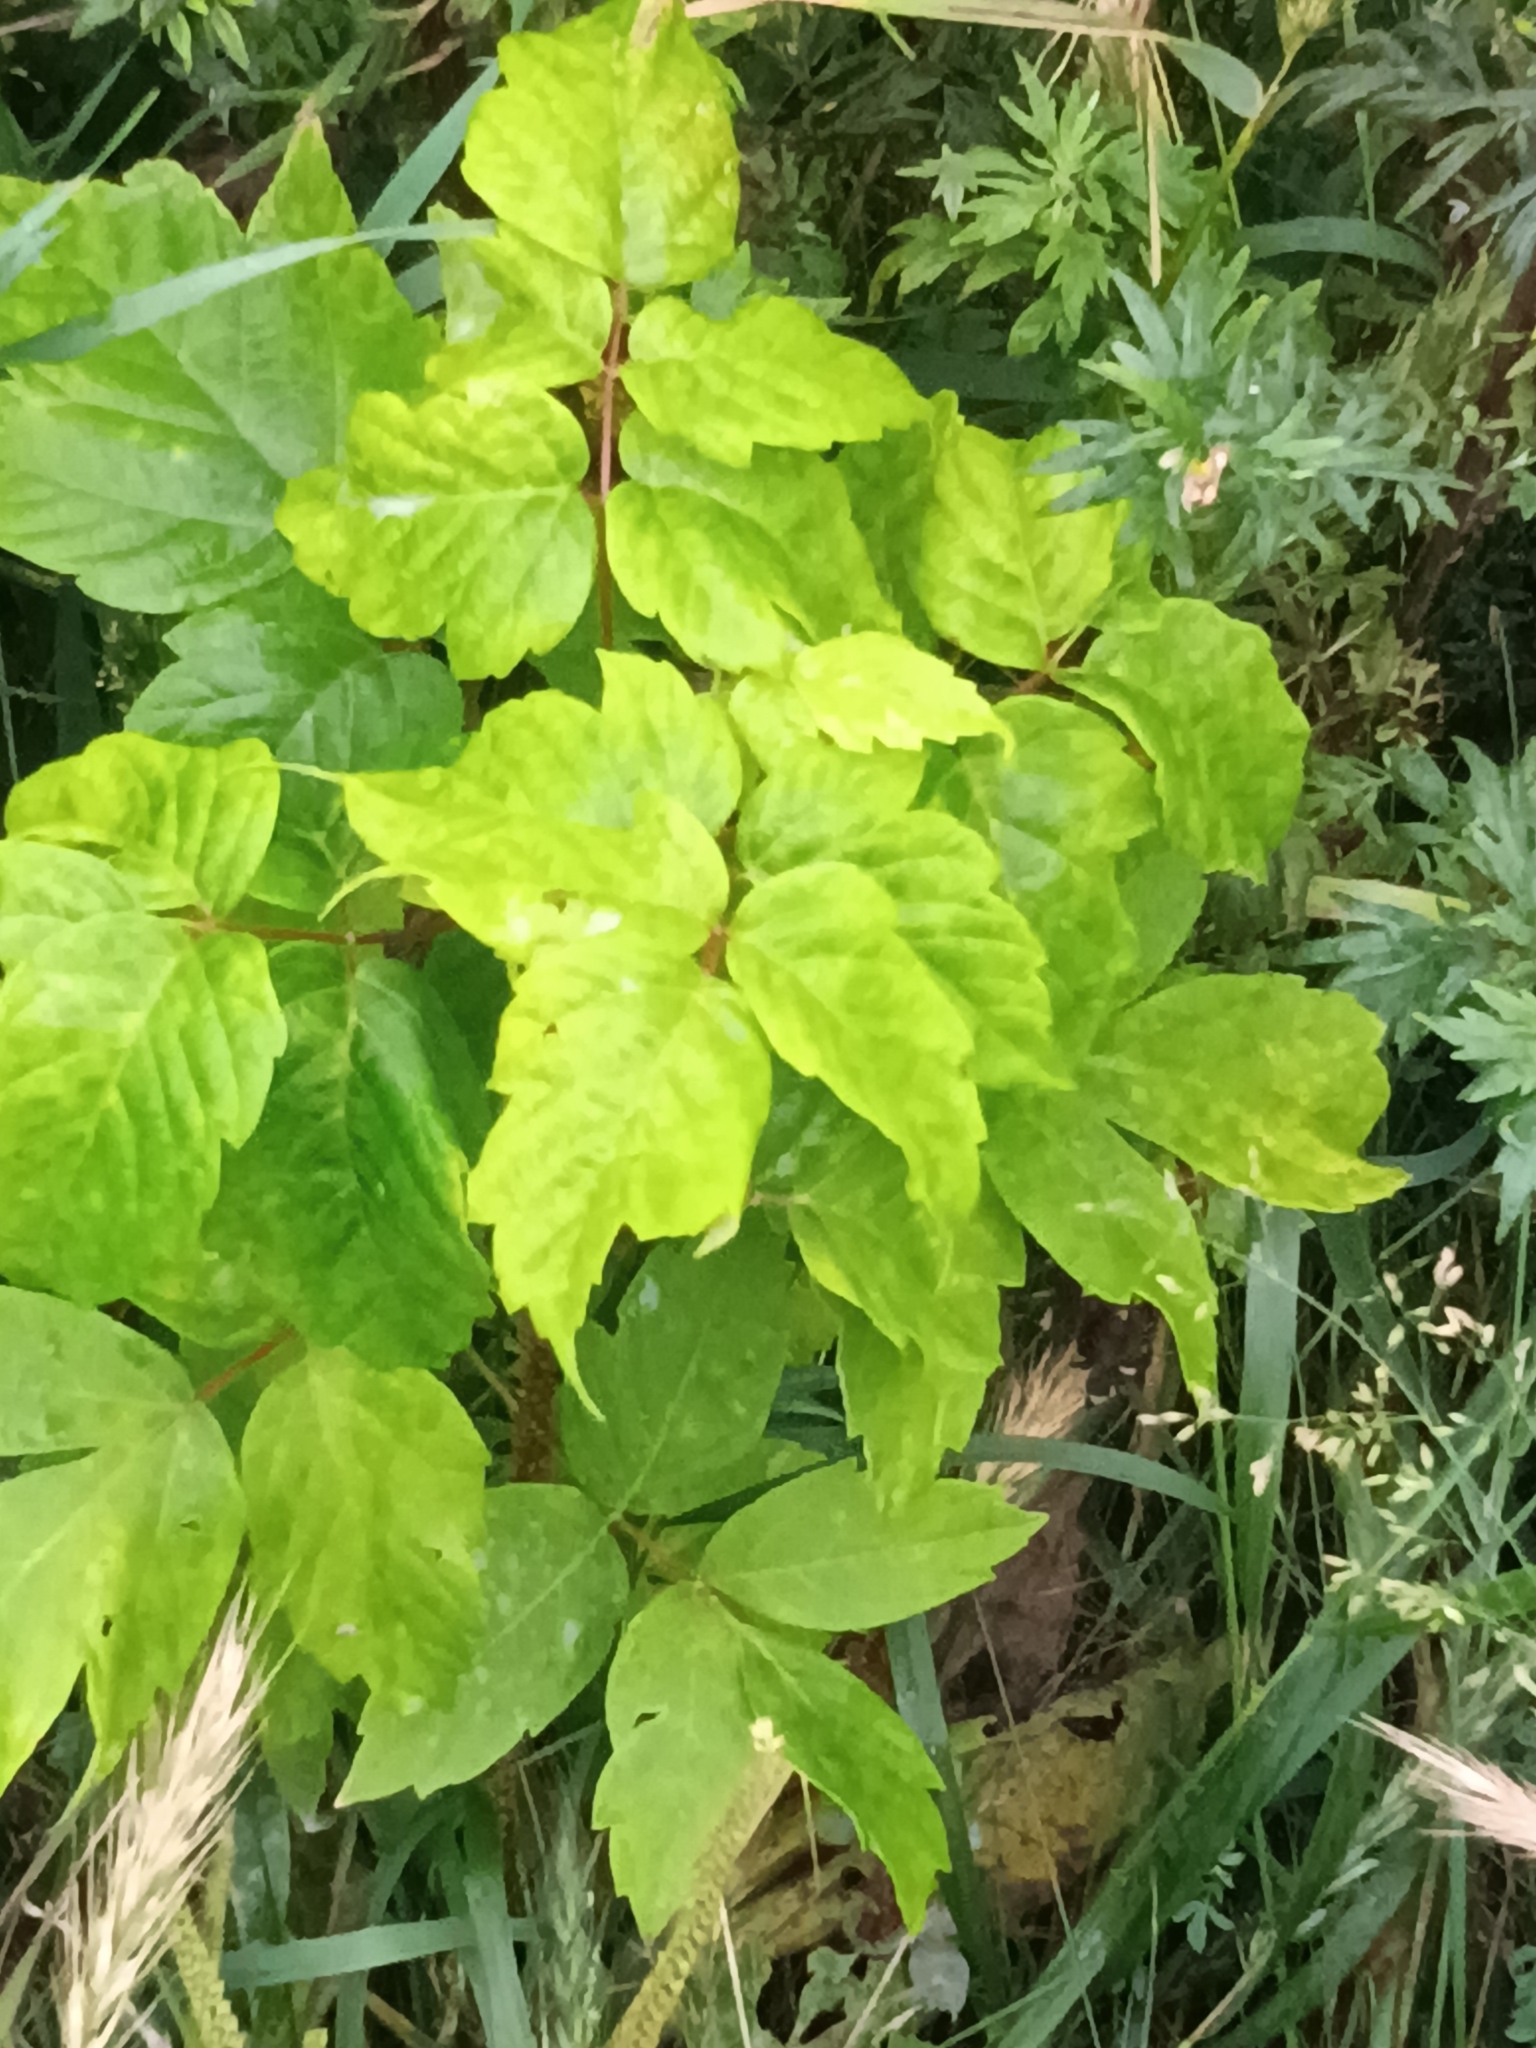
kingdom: Plantae
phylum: Tracheophyta
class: Magnoliopsida
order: Sapindales
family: Sapindaceae
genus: Acer
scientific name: Acer negundo
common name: Ashleaf maple
